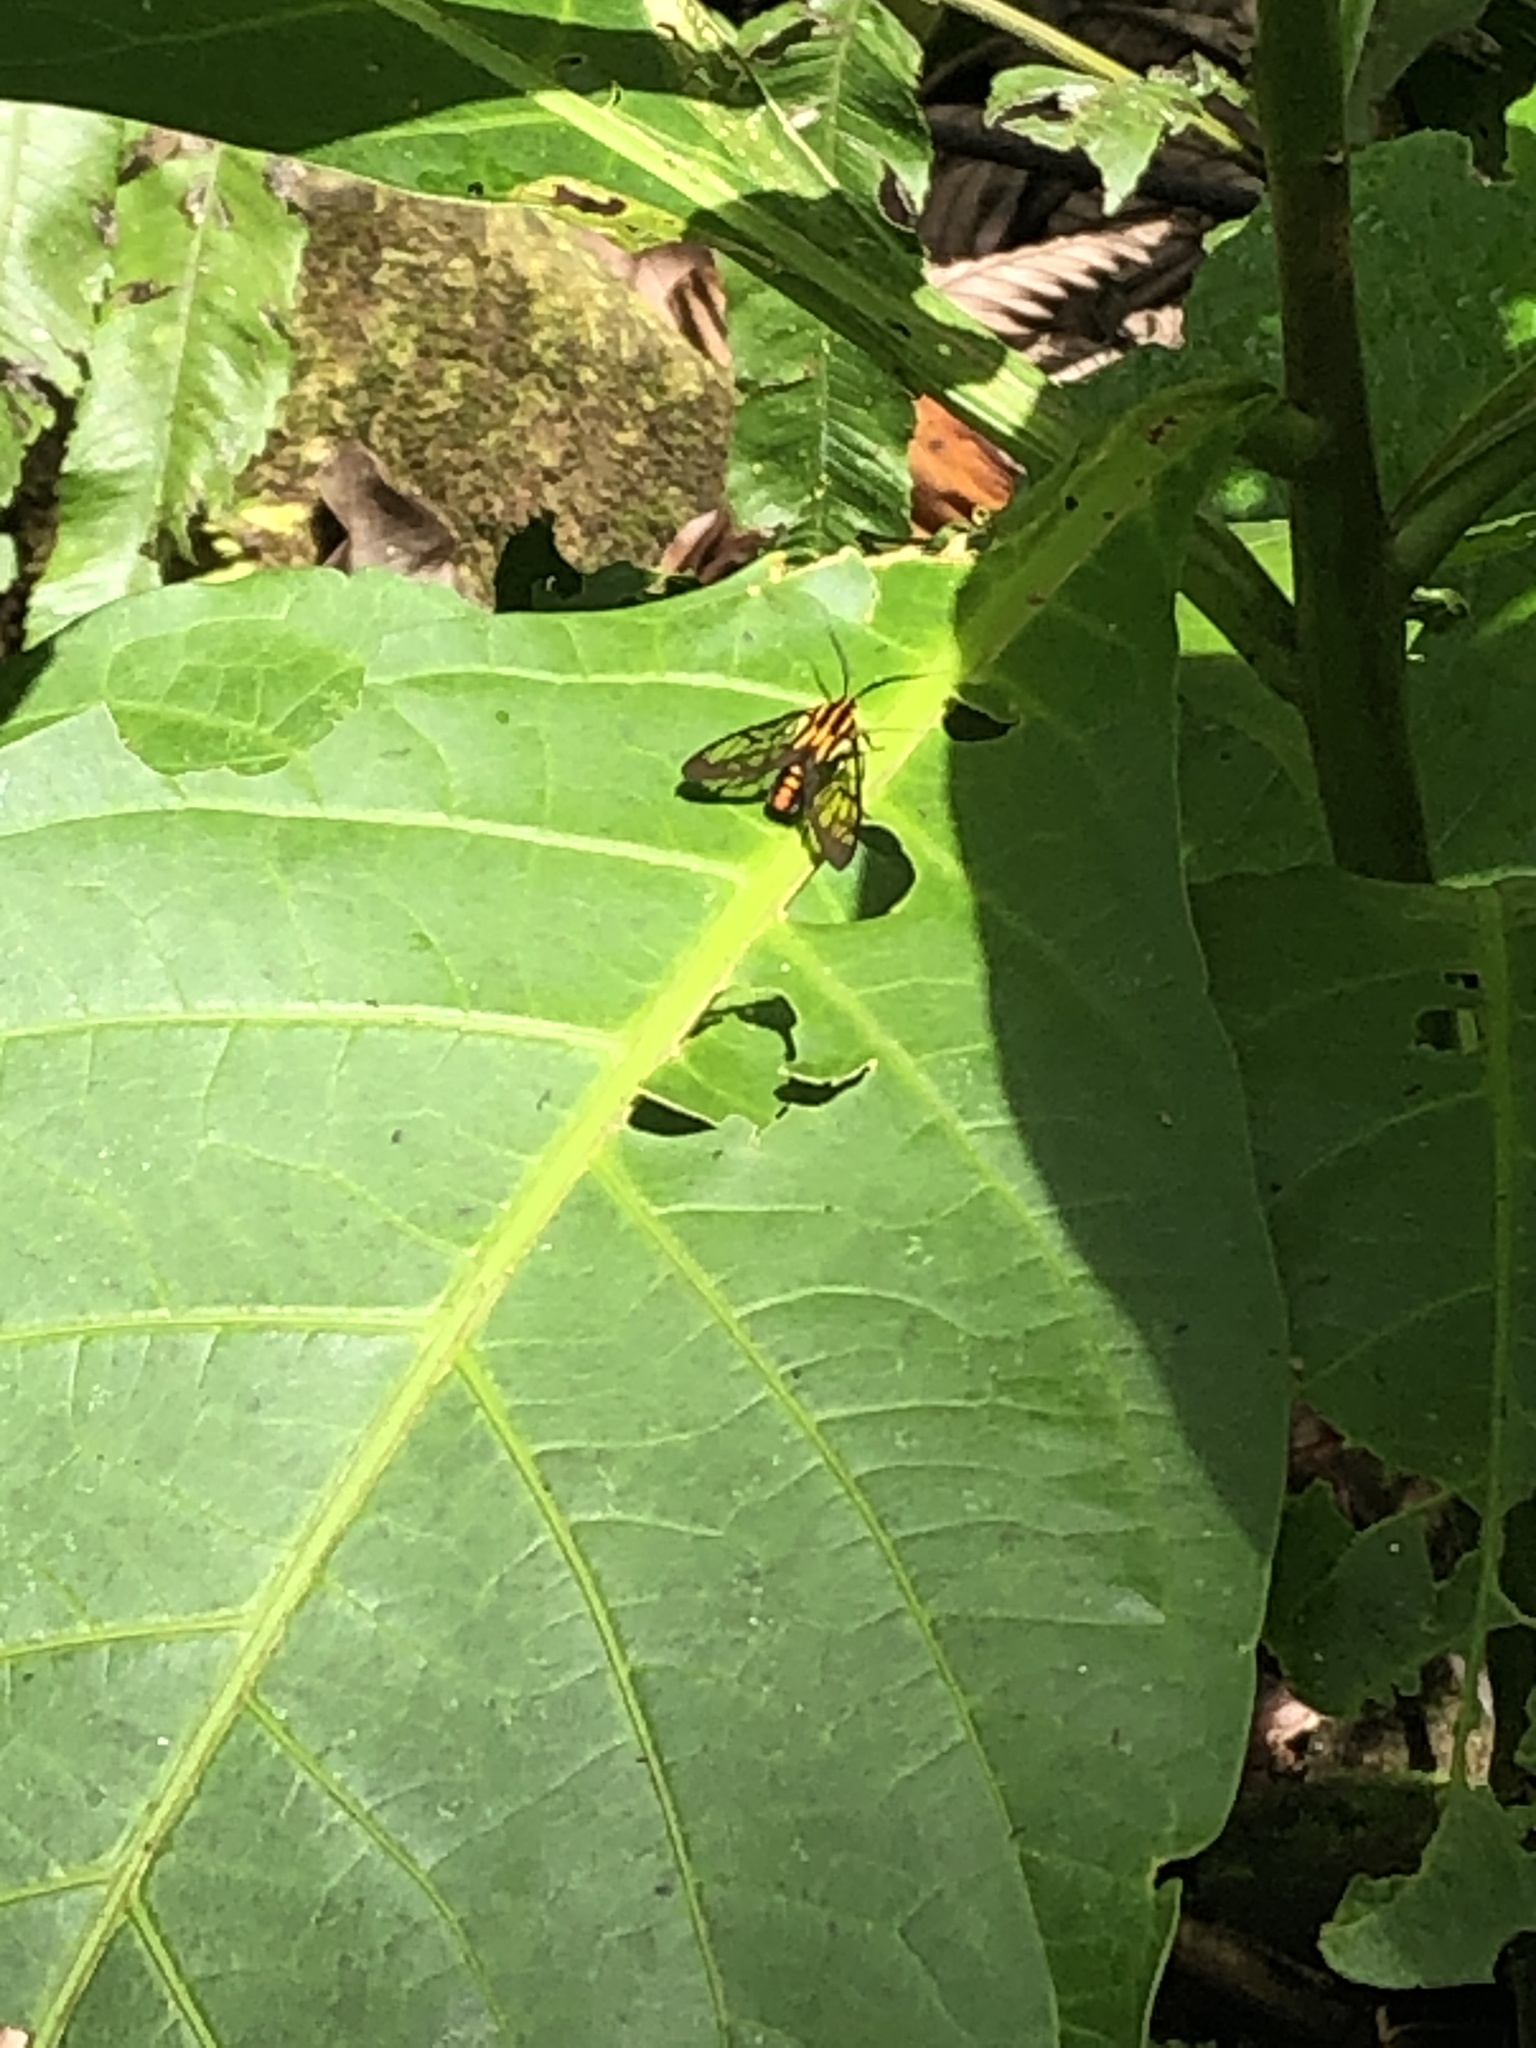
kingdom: Animalia
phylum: Arthropoda
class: Insecta
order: Lepidoptera
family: Erebidae
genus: Paraethria
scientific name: Paraethria flavosignata
